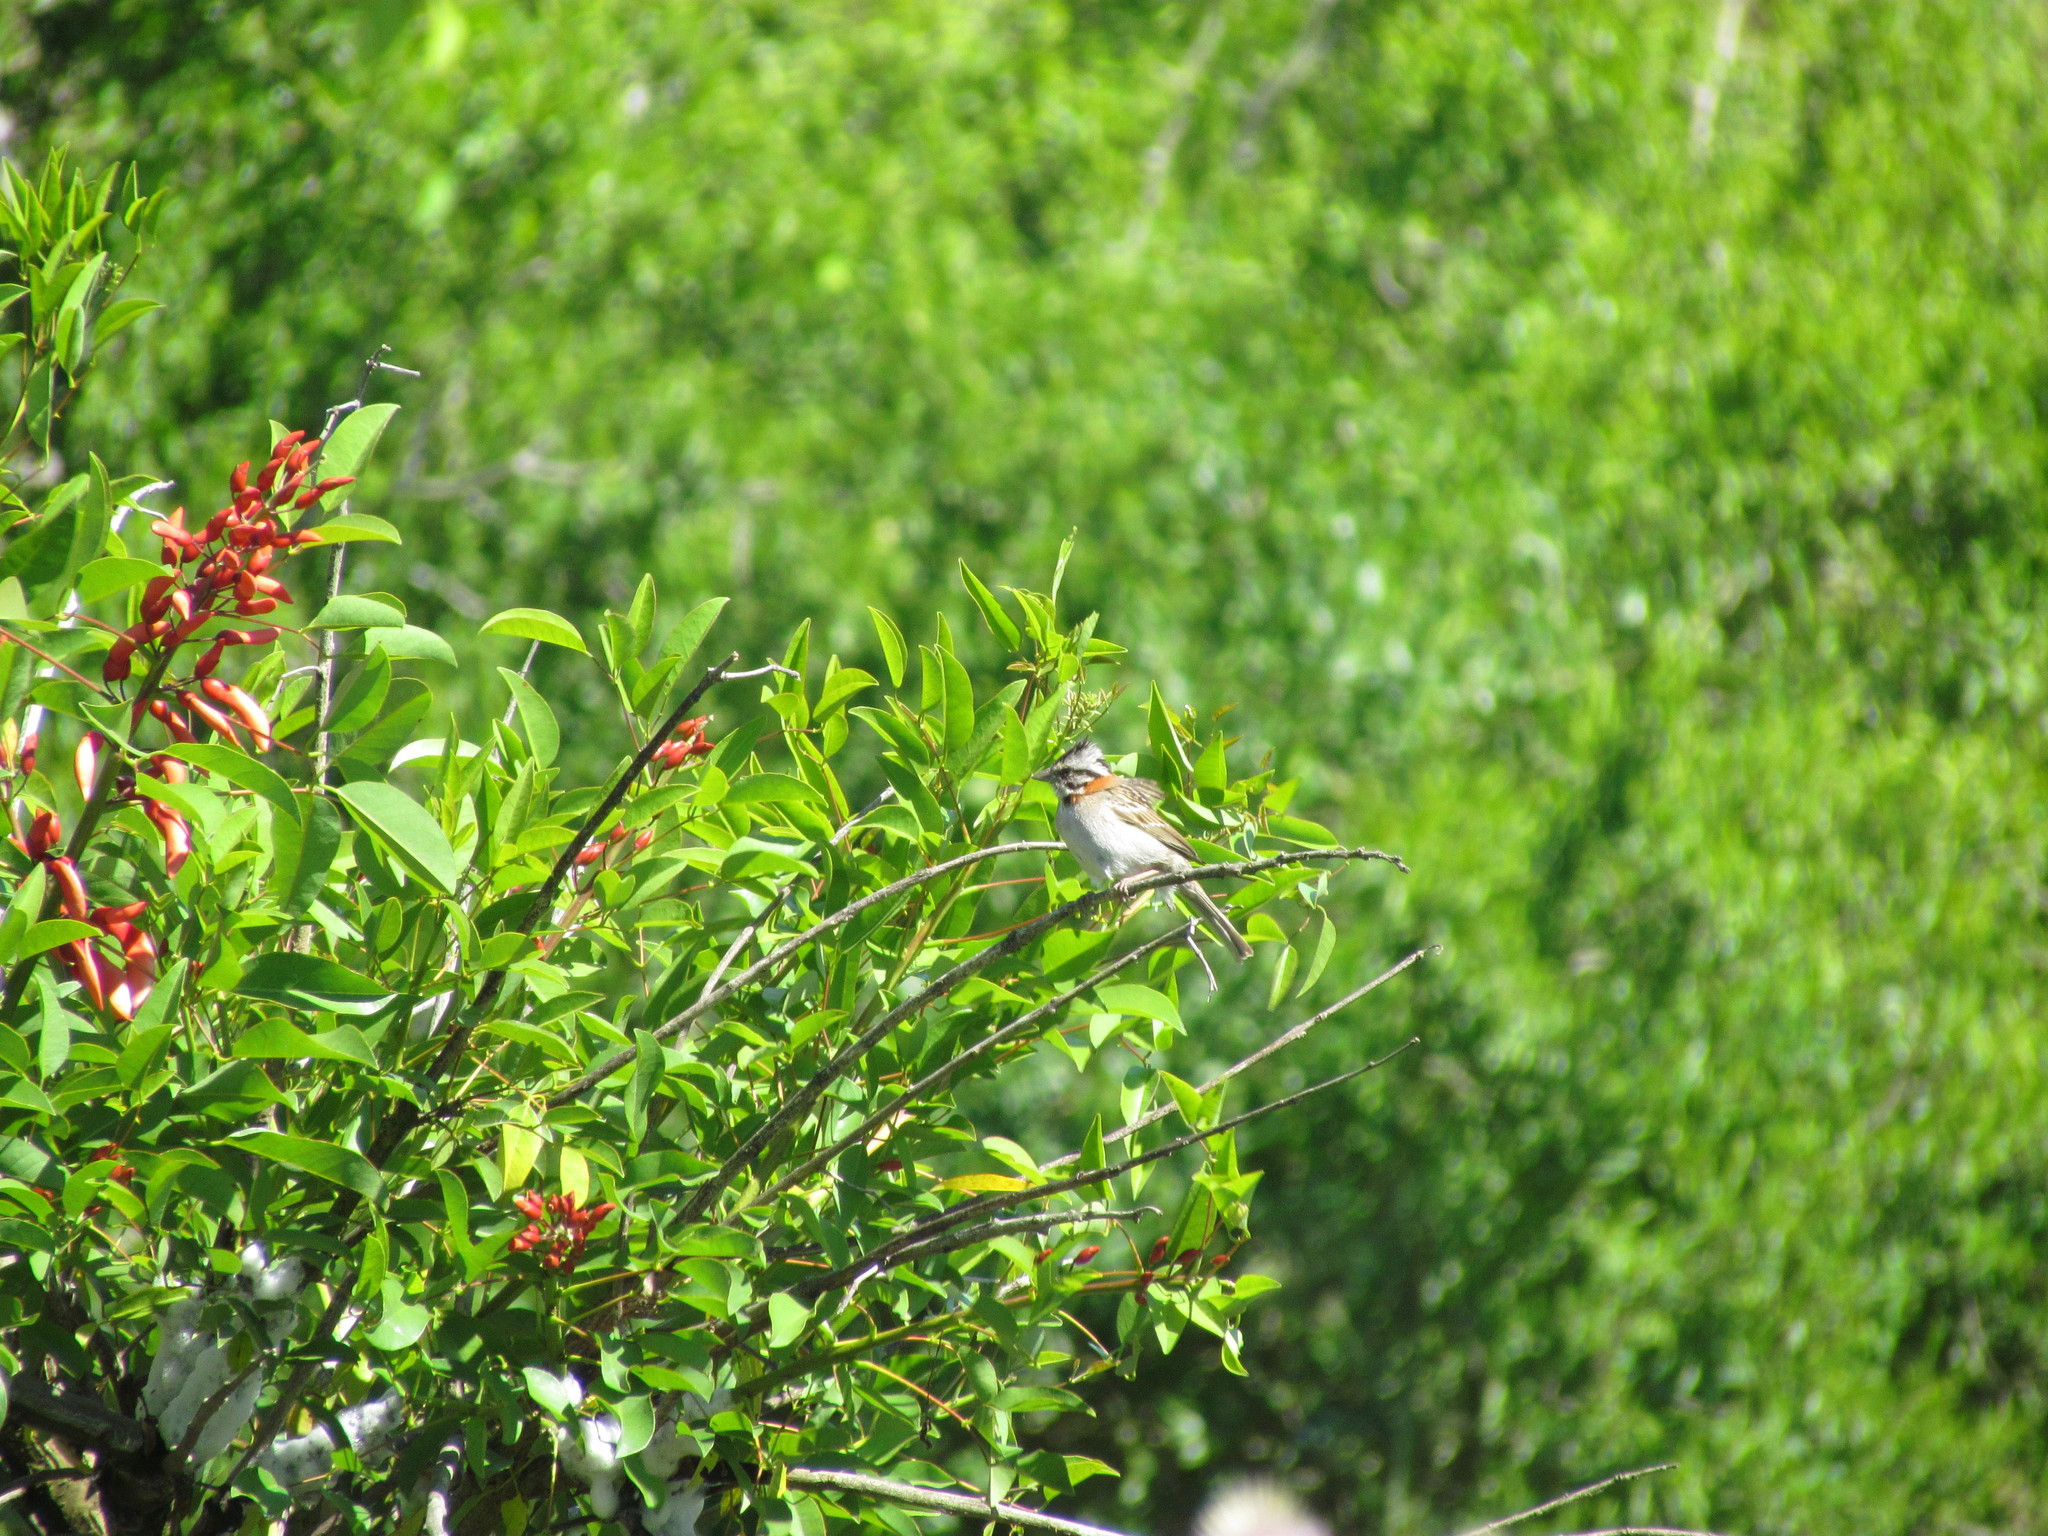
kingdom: Animalia
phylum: Chordata
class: Aves
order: Passeriformes
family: Passerellidae
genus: Zonotrichia
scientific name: Zonotrichia capensis
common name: Rufous-collared sparrow
